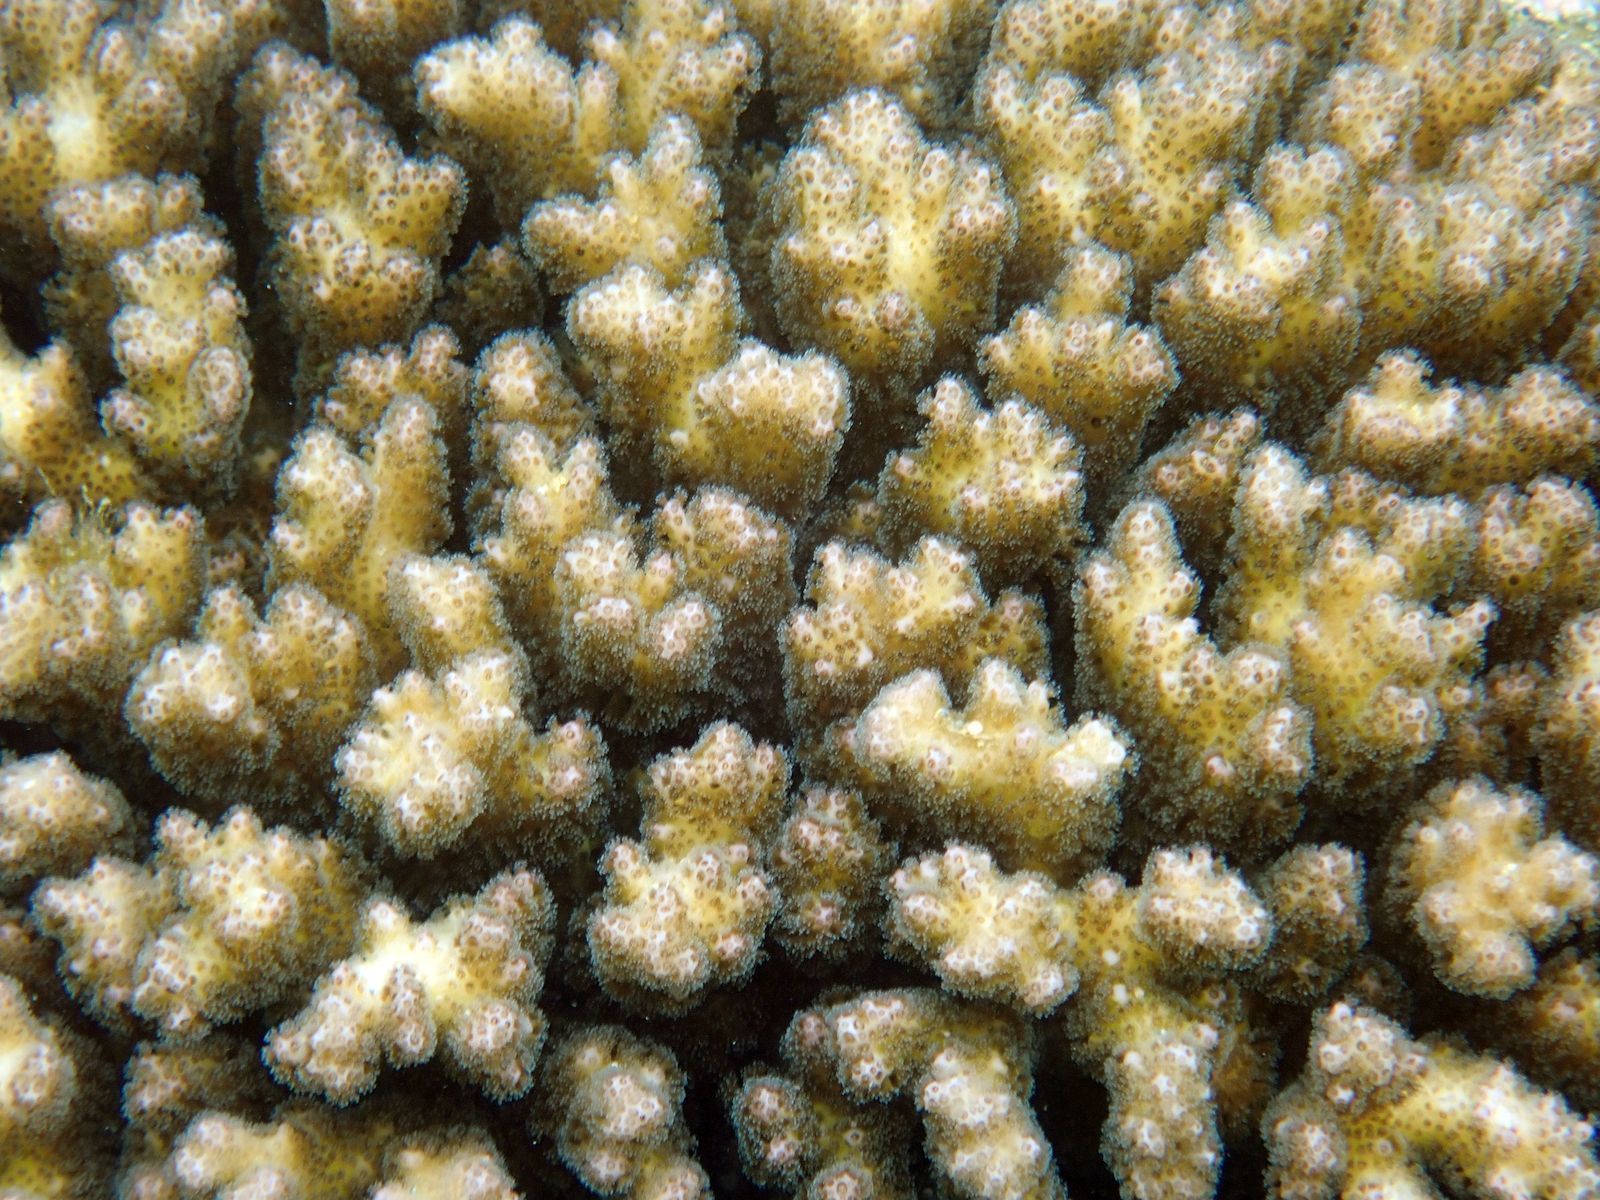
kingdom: Animalia
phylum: Cnidaria
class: Anthozoa
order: Scleractinia
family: Pocilloporidae
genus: Pocillopora
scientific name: Pocillopora damicornis
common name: Cauliflower coral
